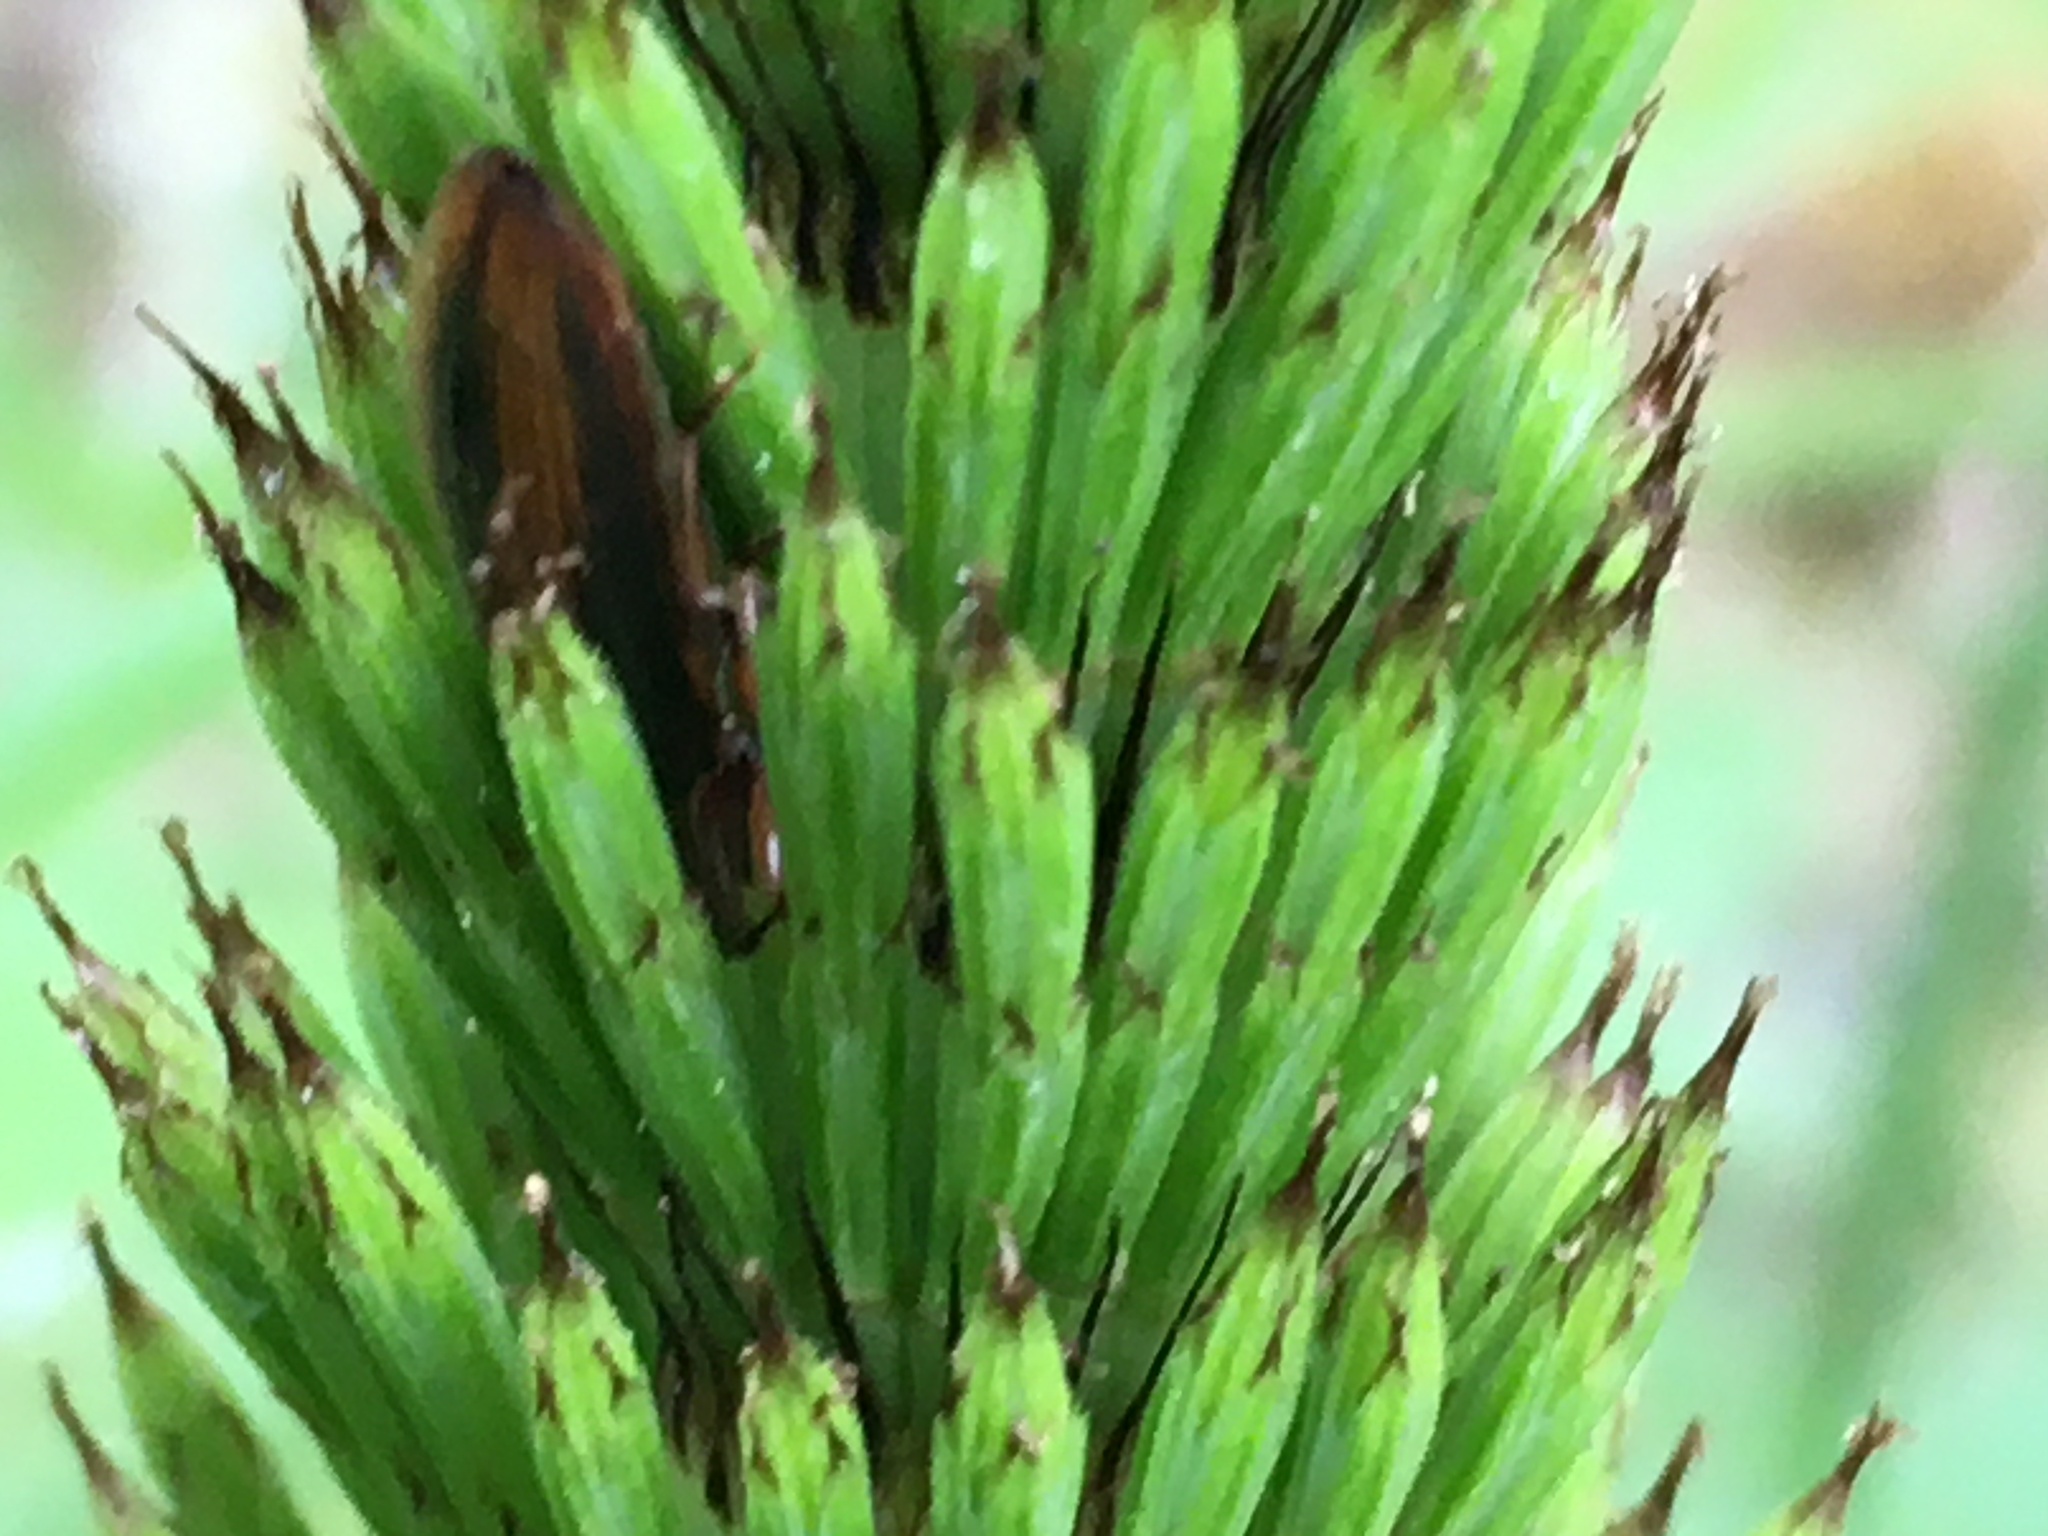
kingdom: Plantae
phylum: Tracheophyta
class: Polypodiopsida
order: Equisetales
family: Equisetaceae
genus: Equisetum
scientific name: Equisetum telmateia
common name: Great horsetail
